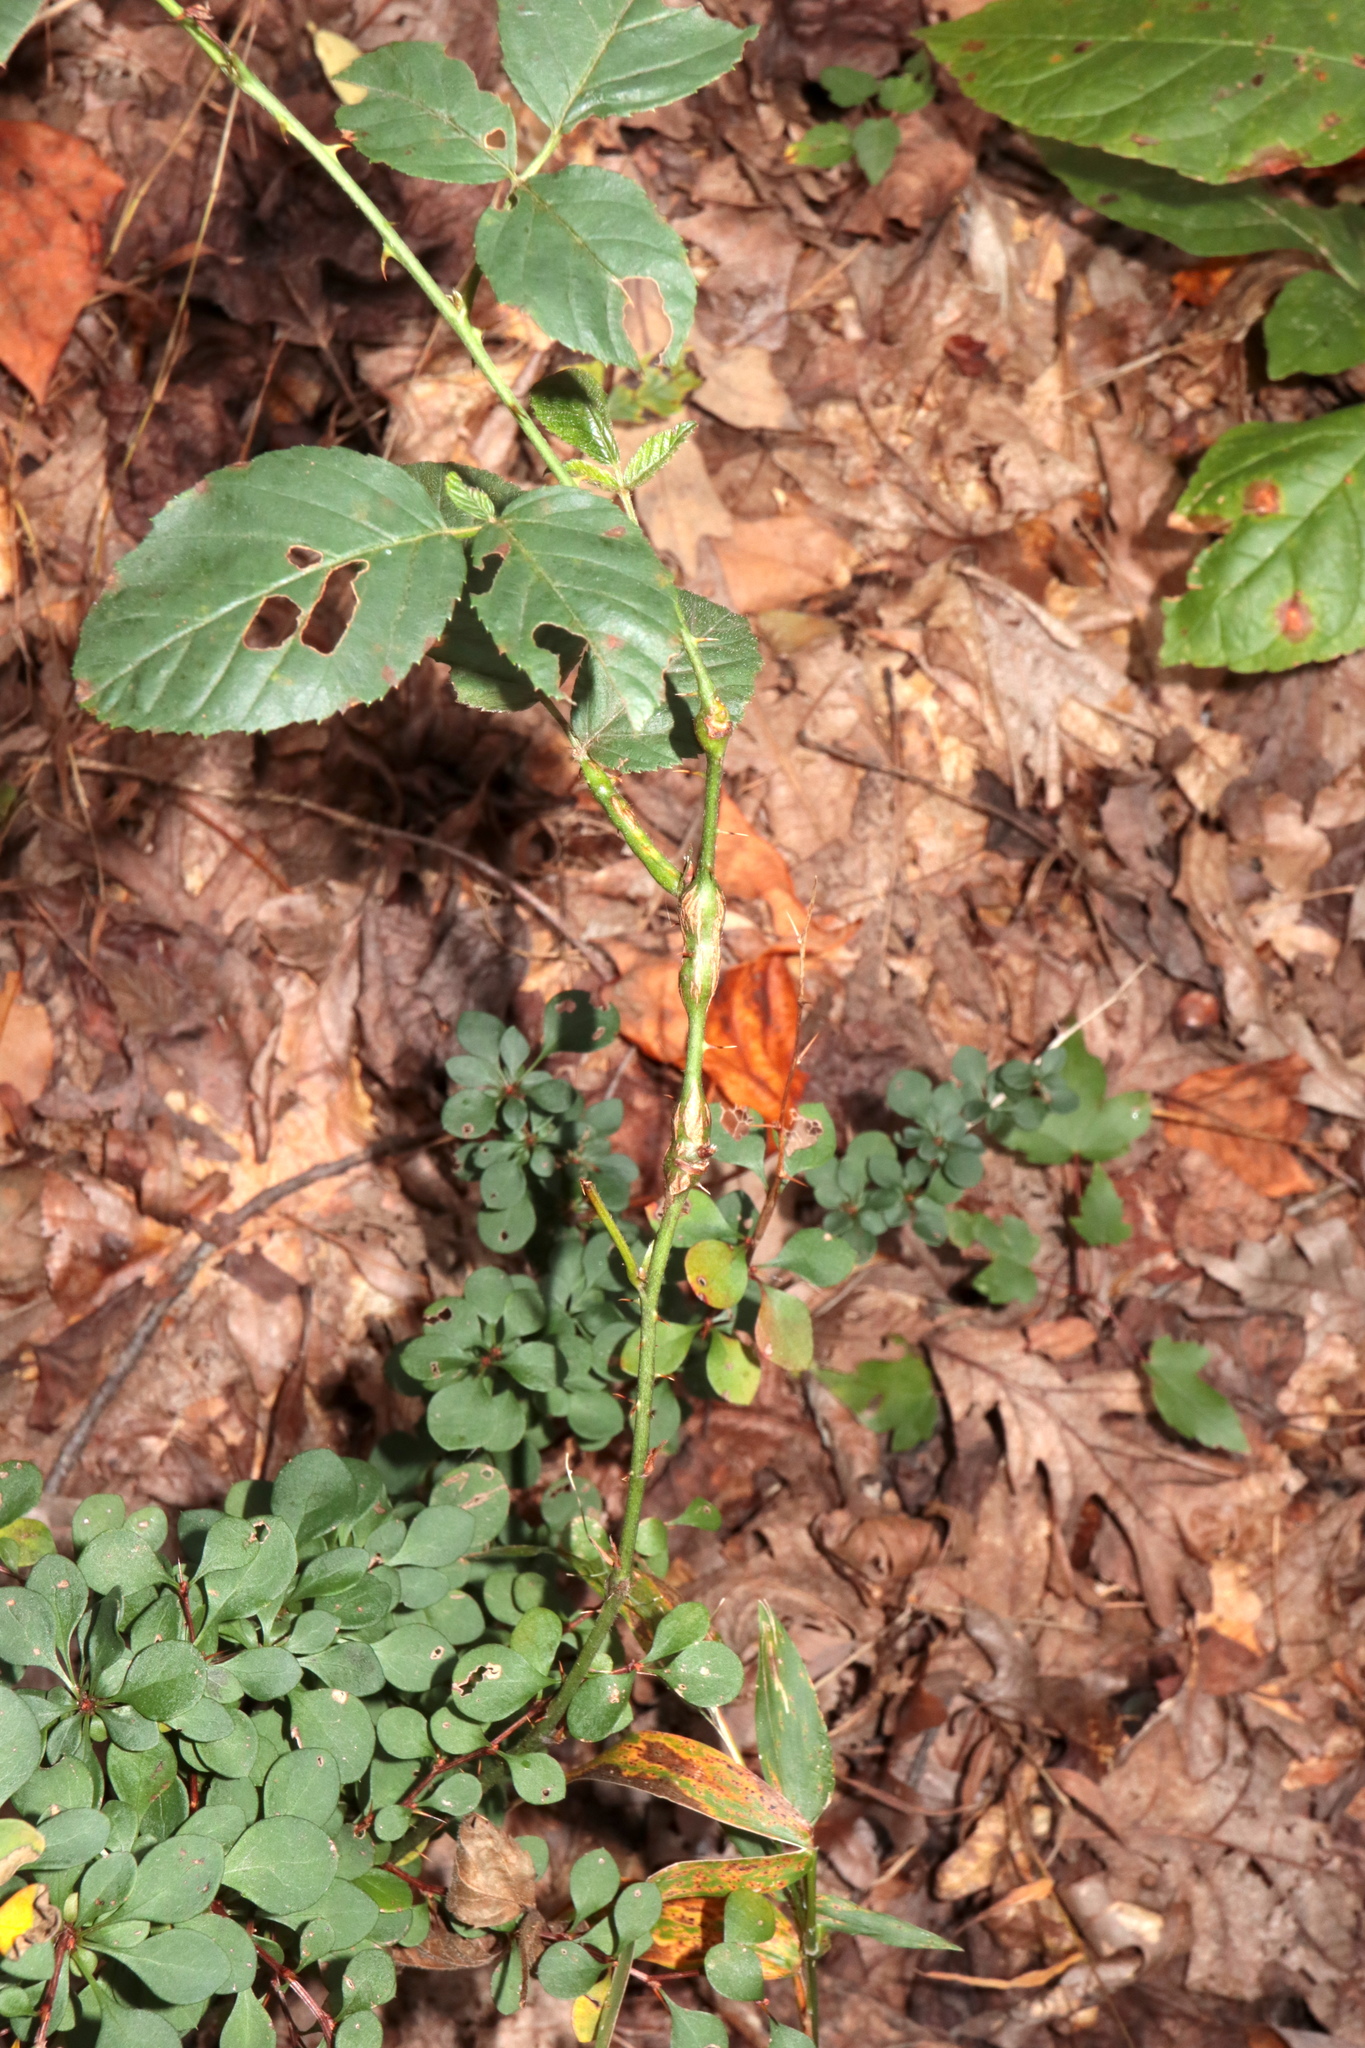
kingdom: Animalia
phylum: Arthropoda
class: Insecta
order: Diptera
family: Cecidomyiidae
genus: Neolasioptera
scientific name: Neolasioptera nodulosa
